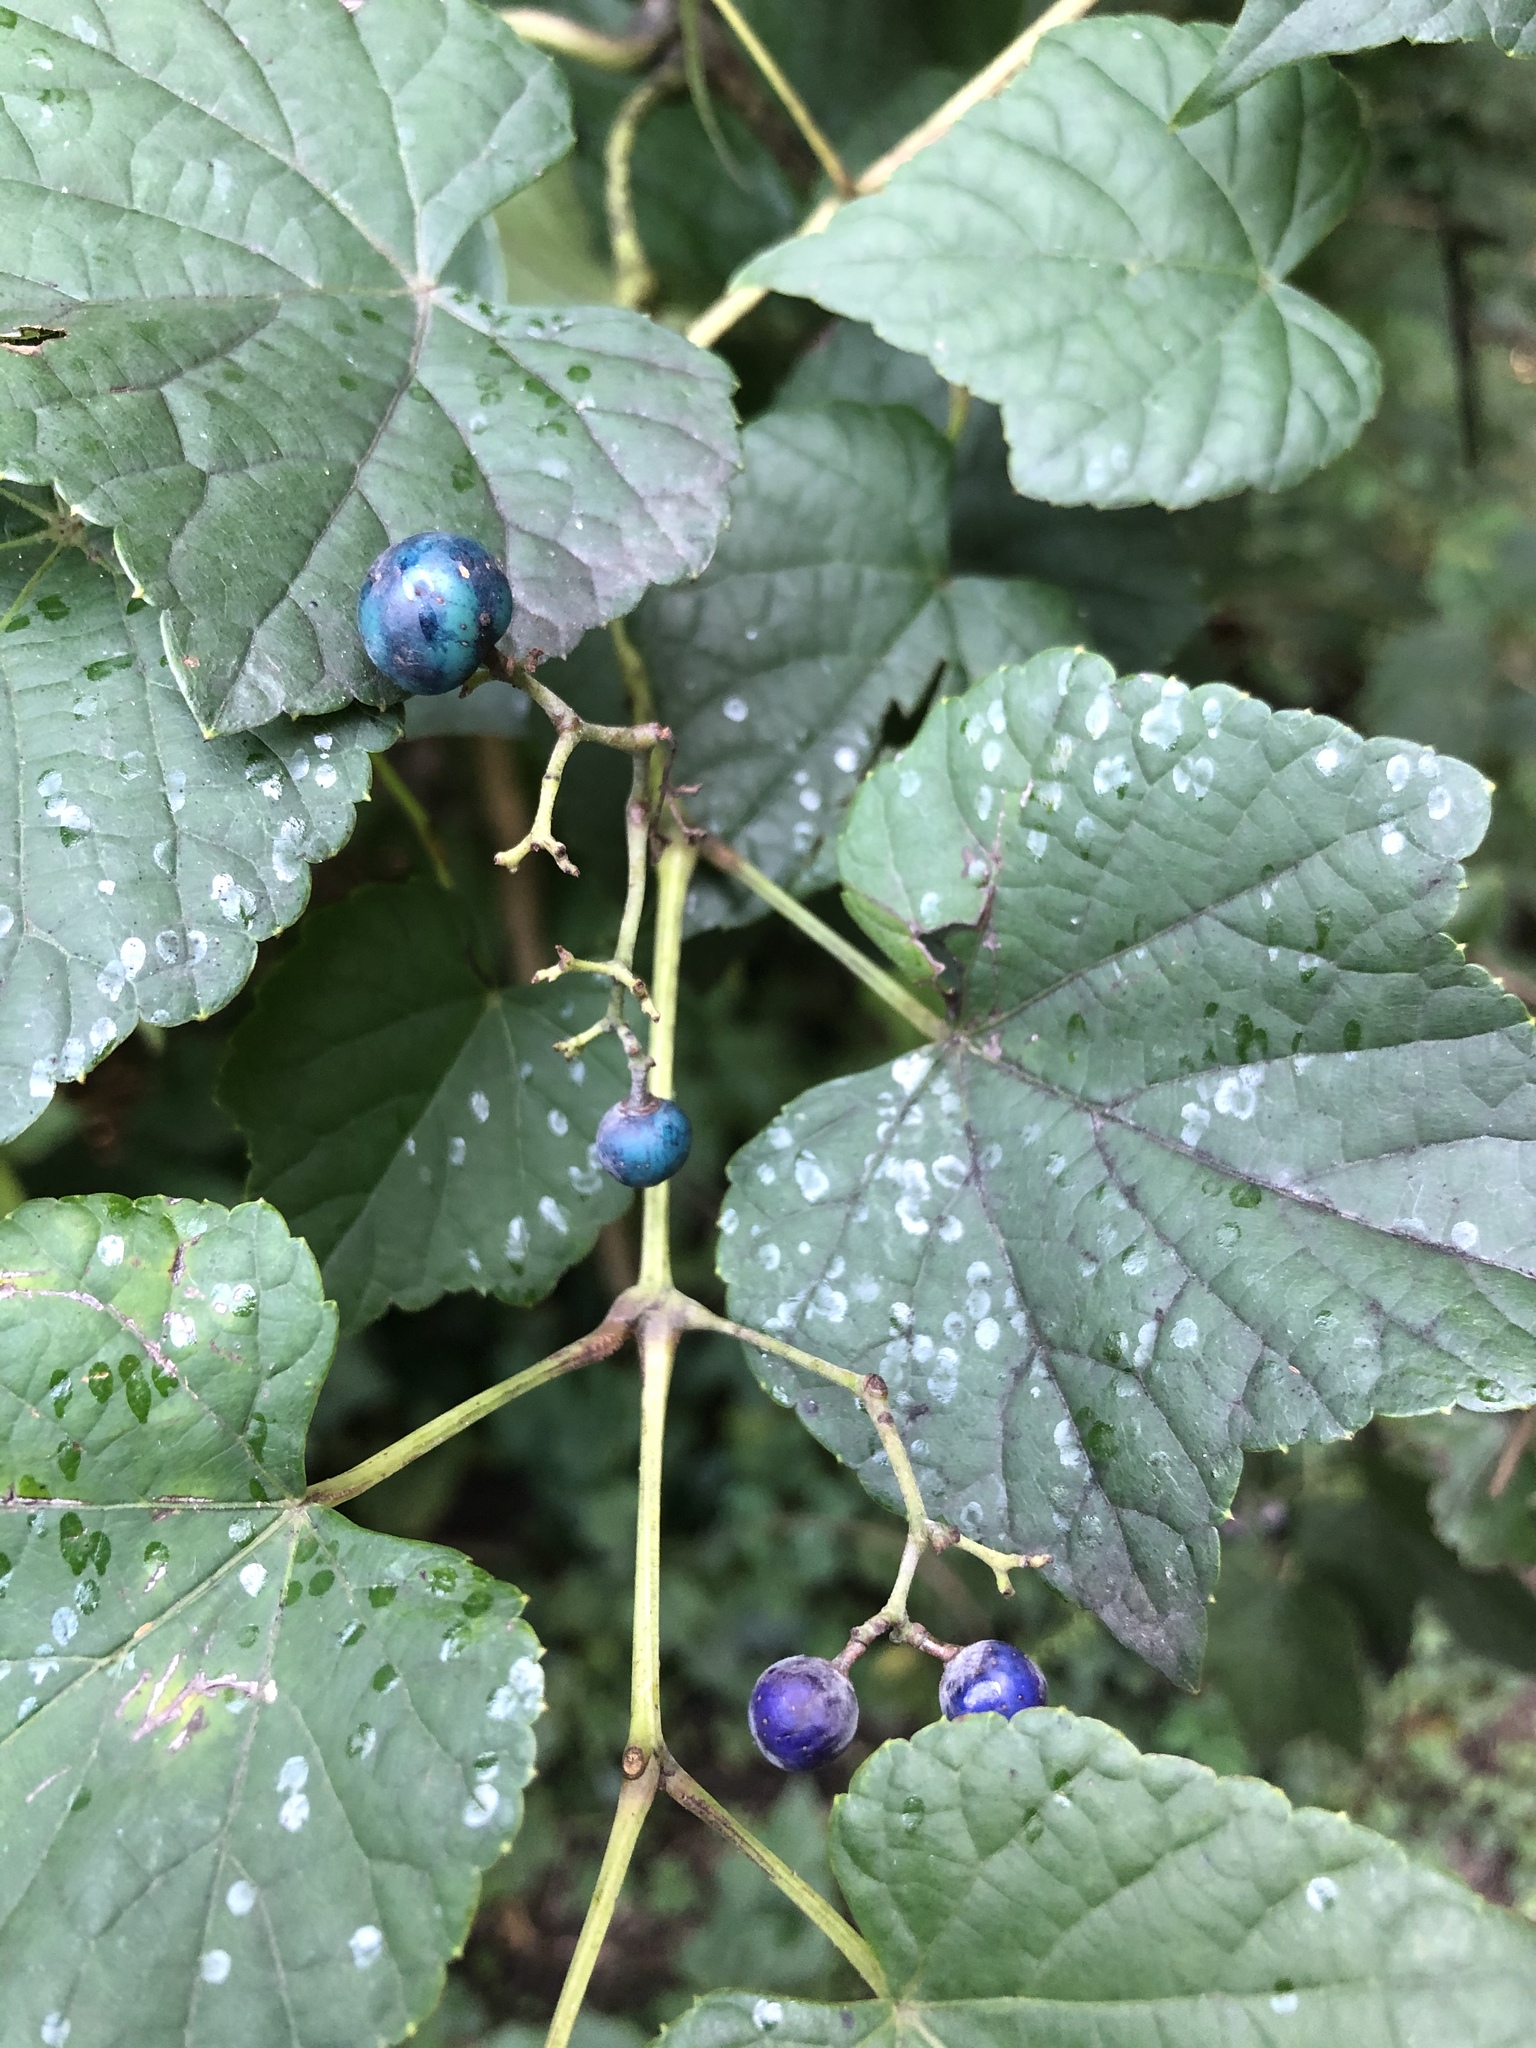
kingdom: Plantae
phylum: Tracheophyta
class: Magnoliopsida
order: Vitales
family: Vitaceae
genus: Ampelopsis
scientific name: Ampelopsis glandulosa
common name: Amur peppervine
